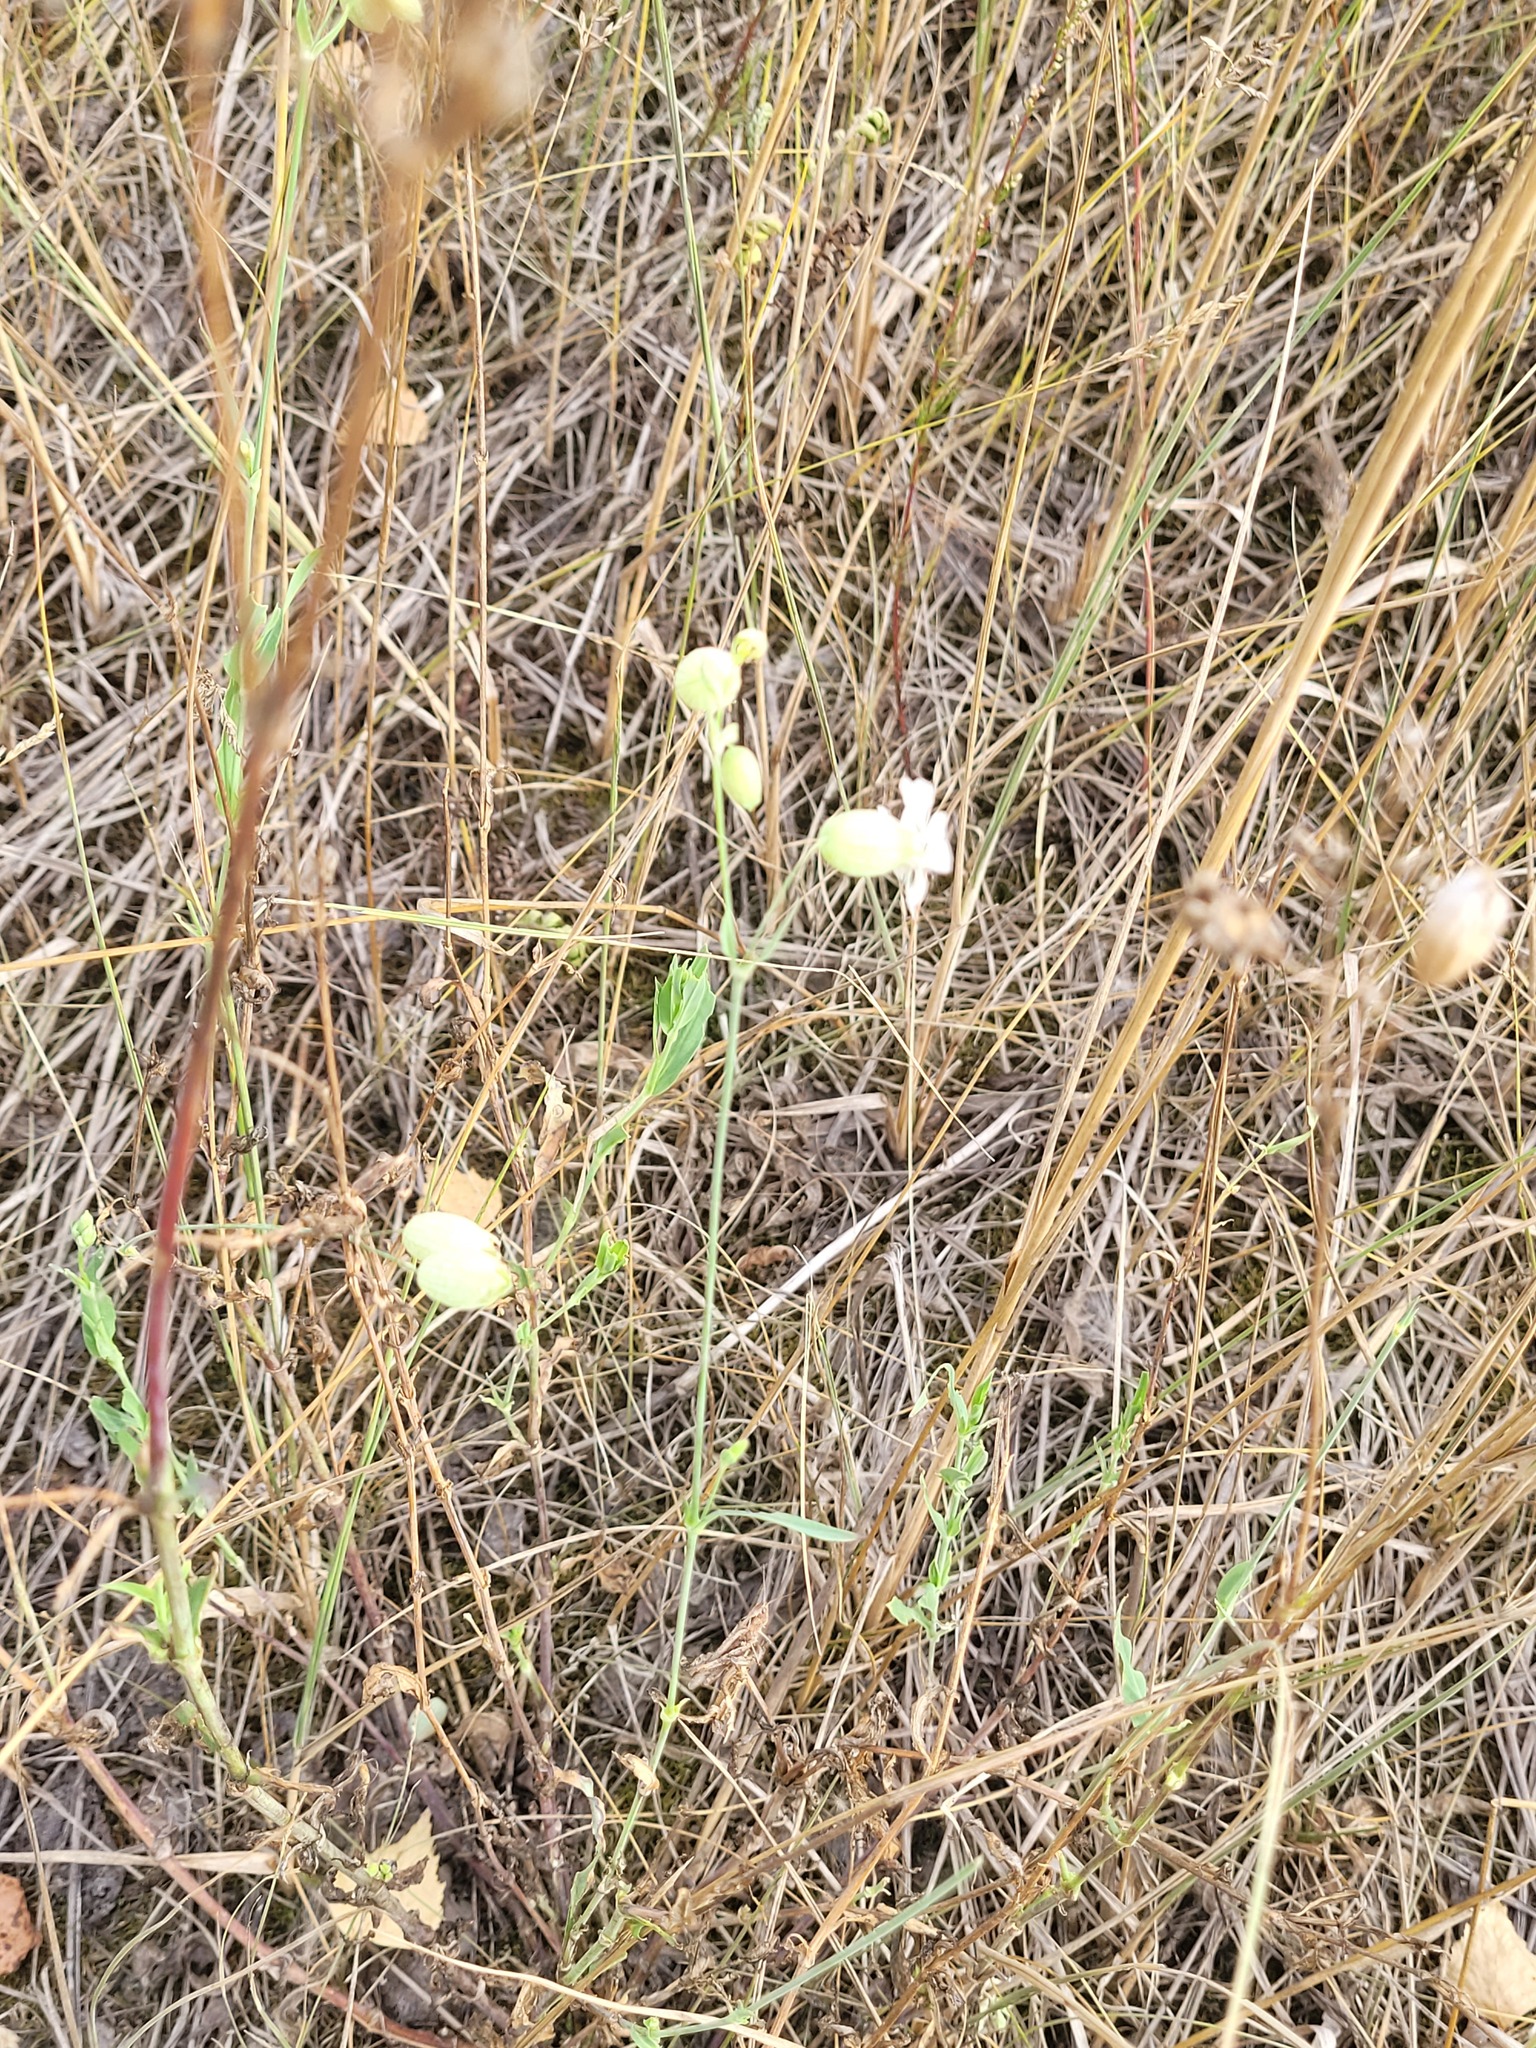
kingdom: Plantae
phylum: Tracheophyta
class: Magnoliopsida
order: Caryophyllales
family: Caryophyllaceae
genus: Silene
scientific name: Silene vulgaris
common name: Bladder campion
